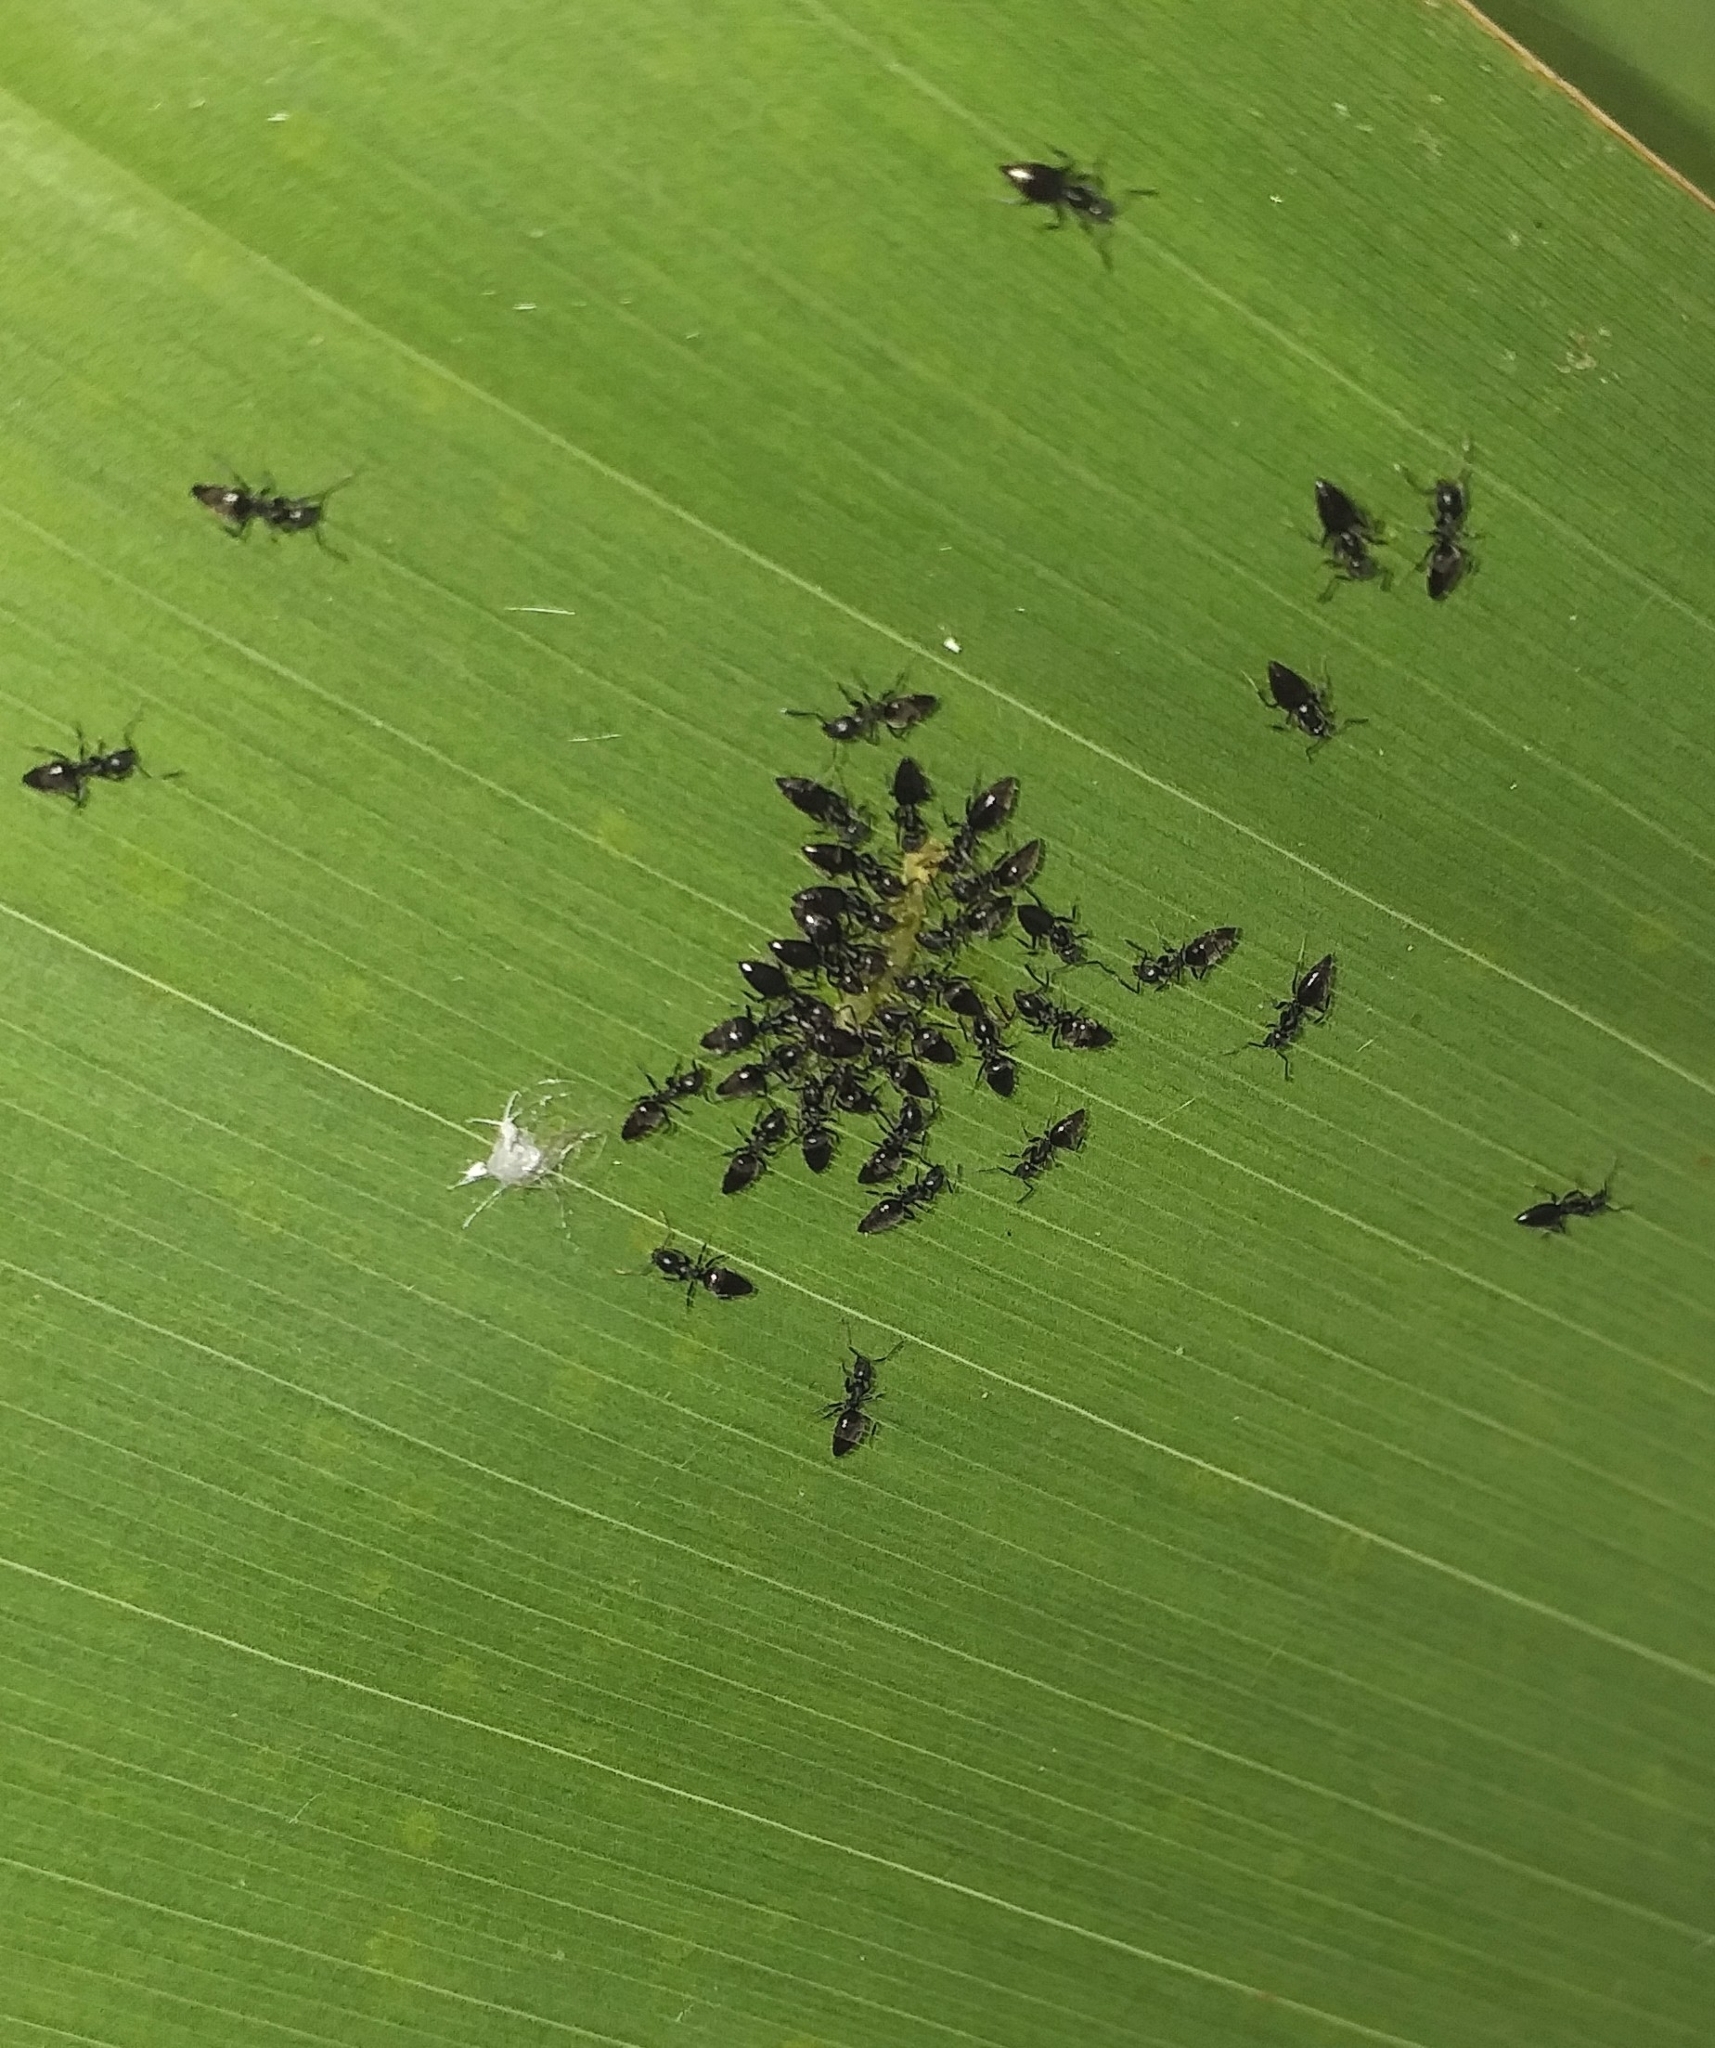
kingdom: Animalia
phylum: Arthropoda
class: Insecta
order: Lepidoptera
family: Hesperiidae
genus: Erionota
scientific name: Erionota torus
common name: Rounded palm-redeye
